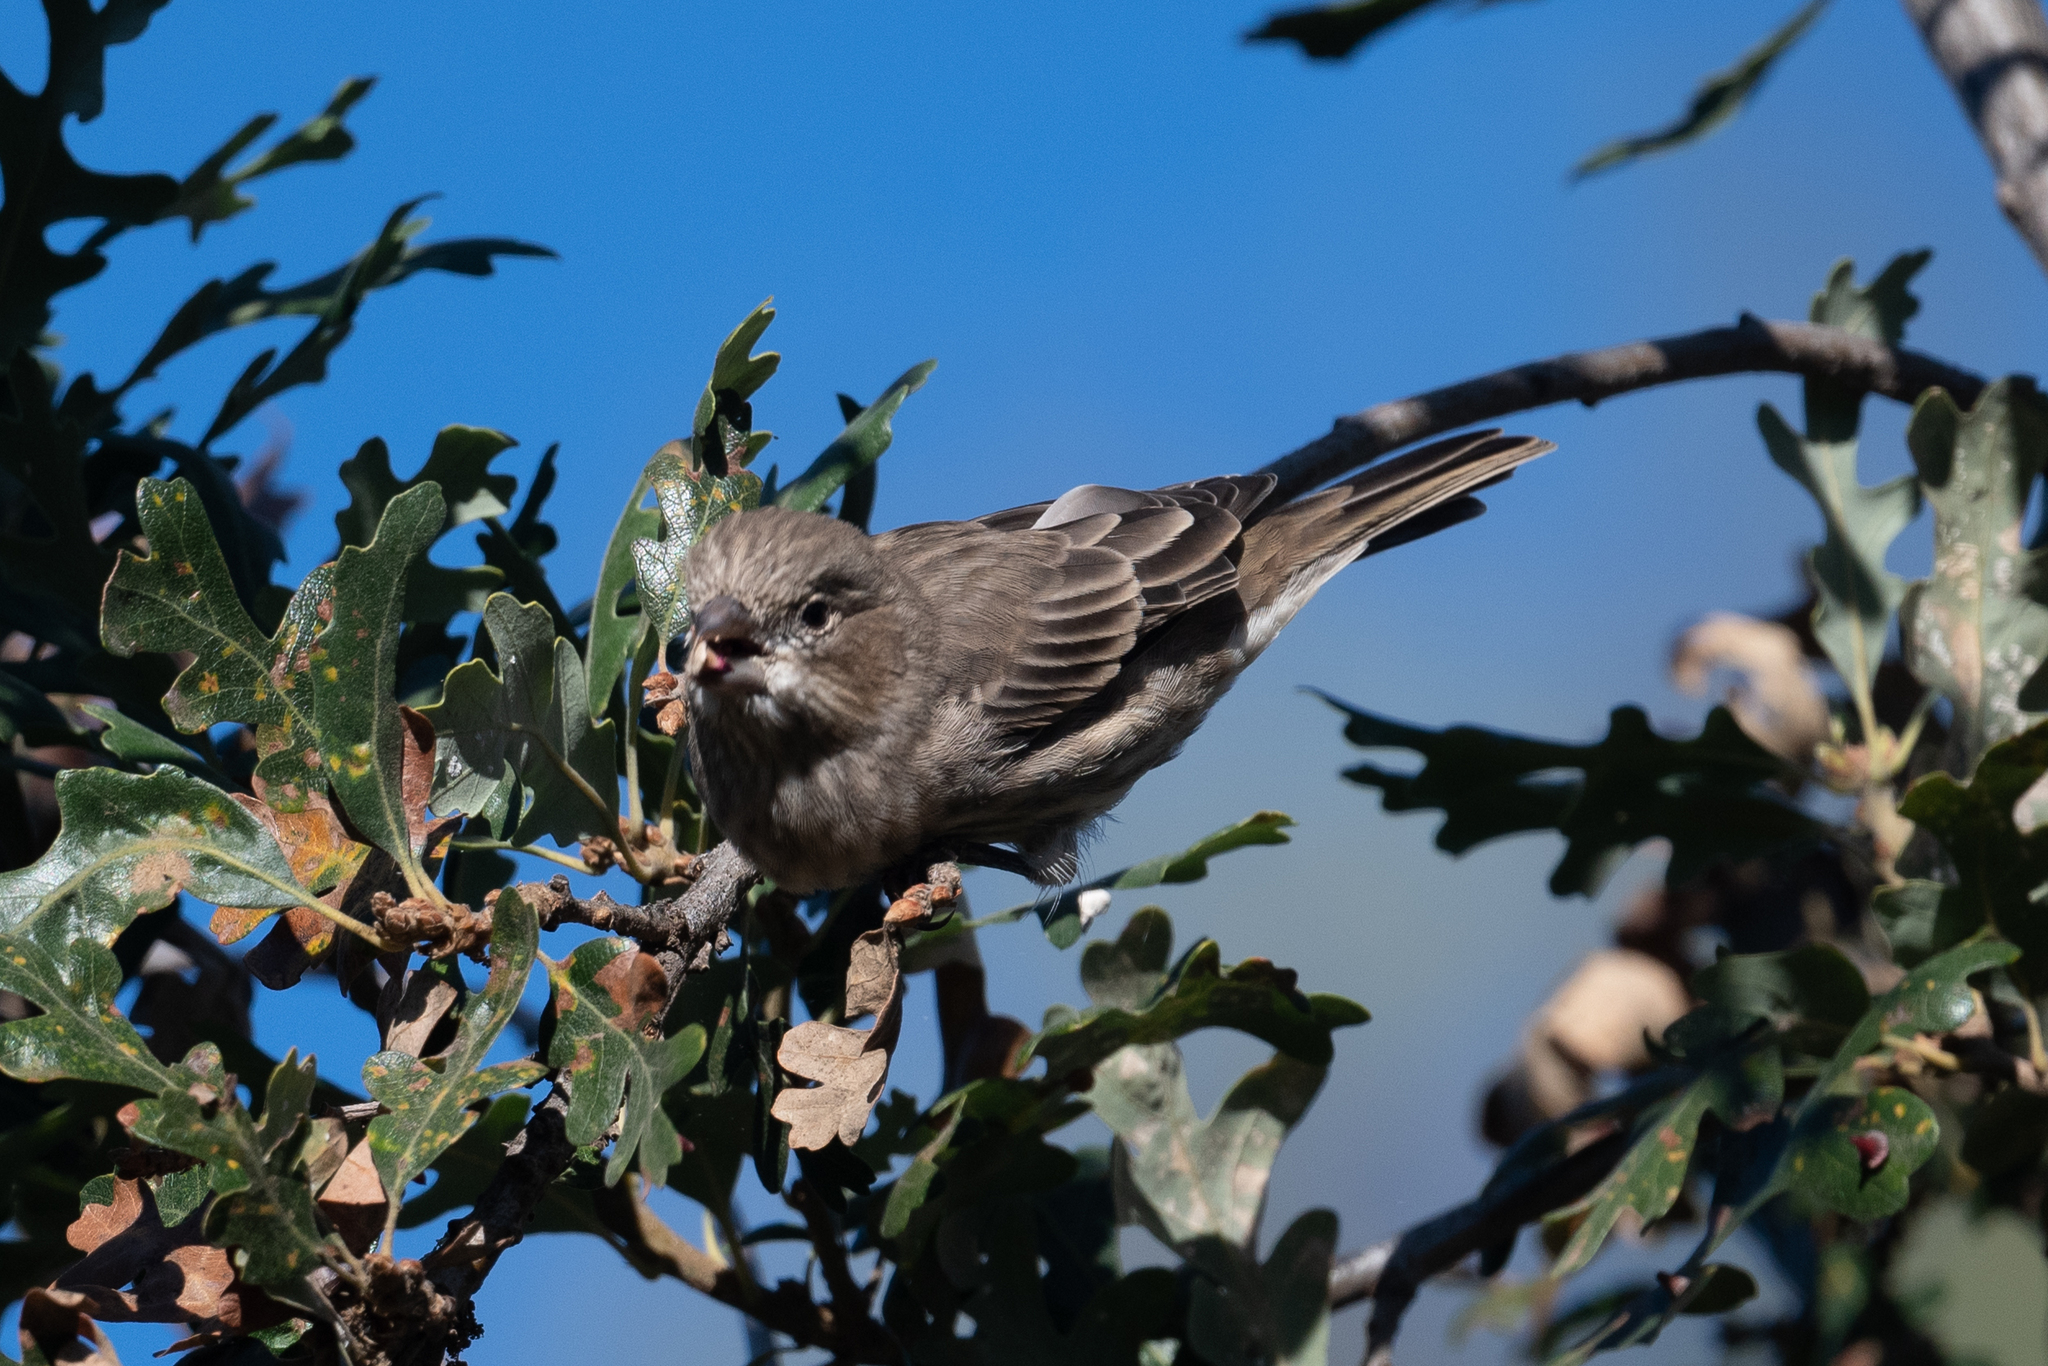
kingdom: Animalia
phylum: Chordata
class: Aves
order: Passeriformes
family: Fringillidae
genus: Haemorhous
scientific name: Haemorhous mexicanus
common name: House finch
